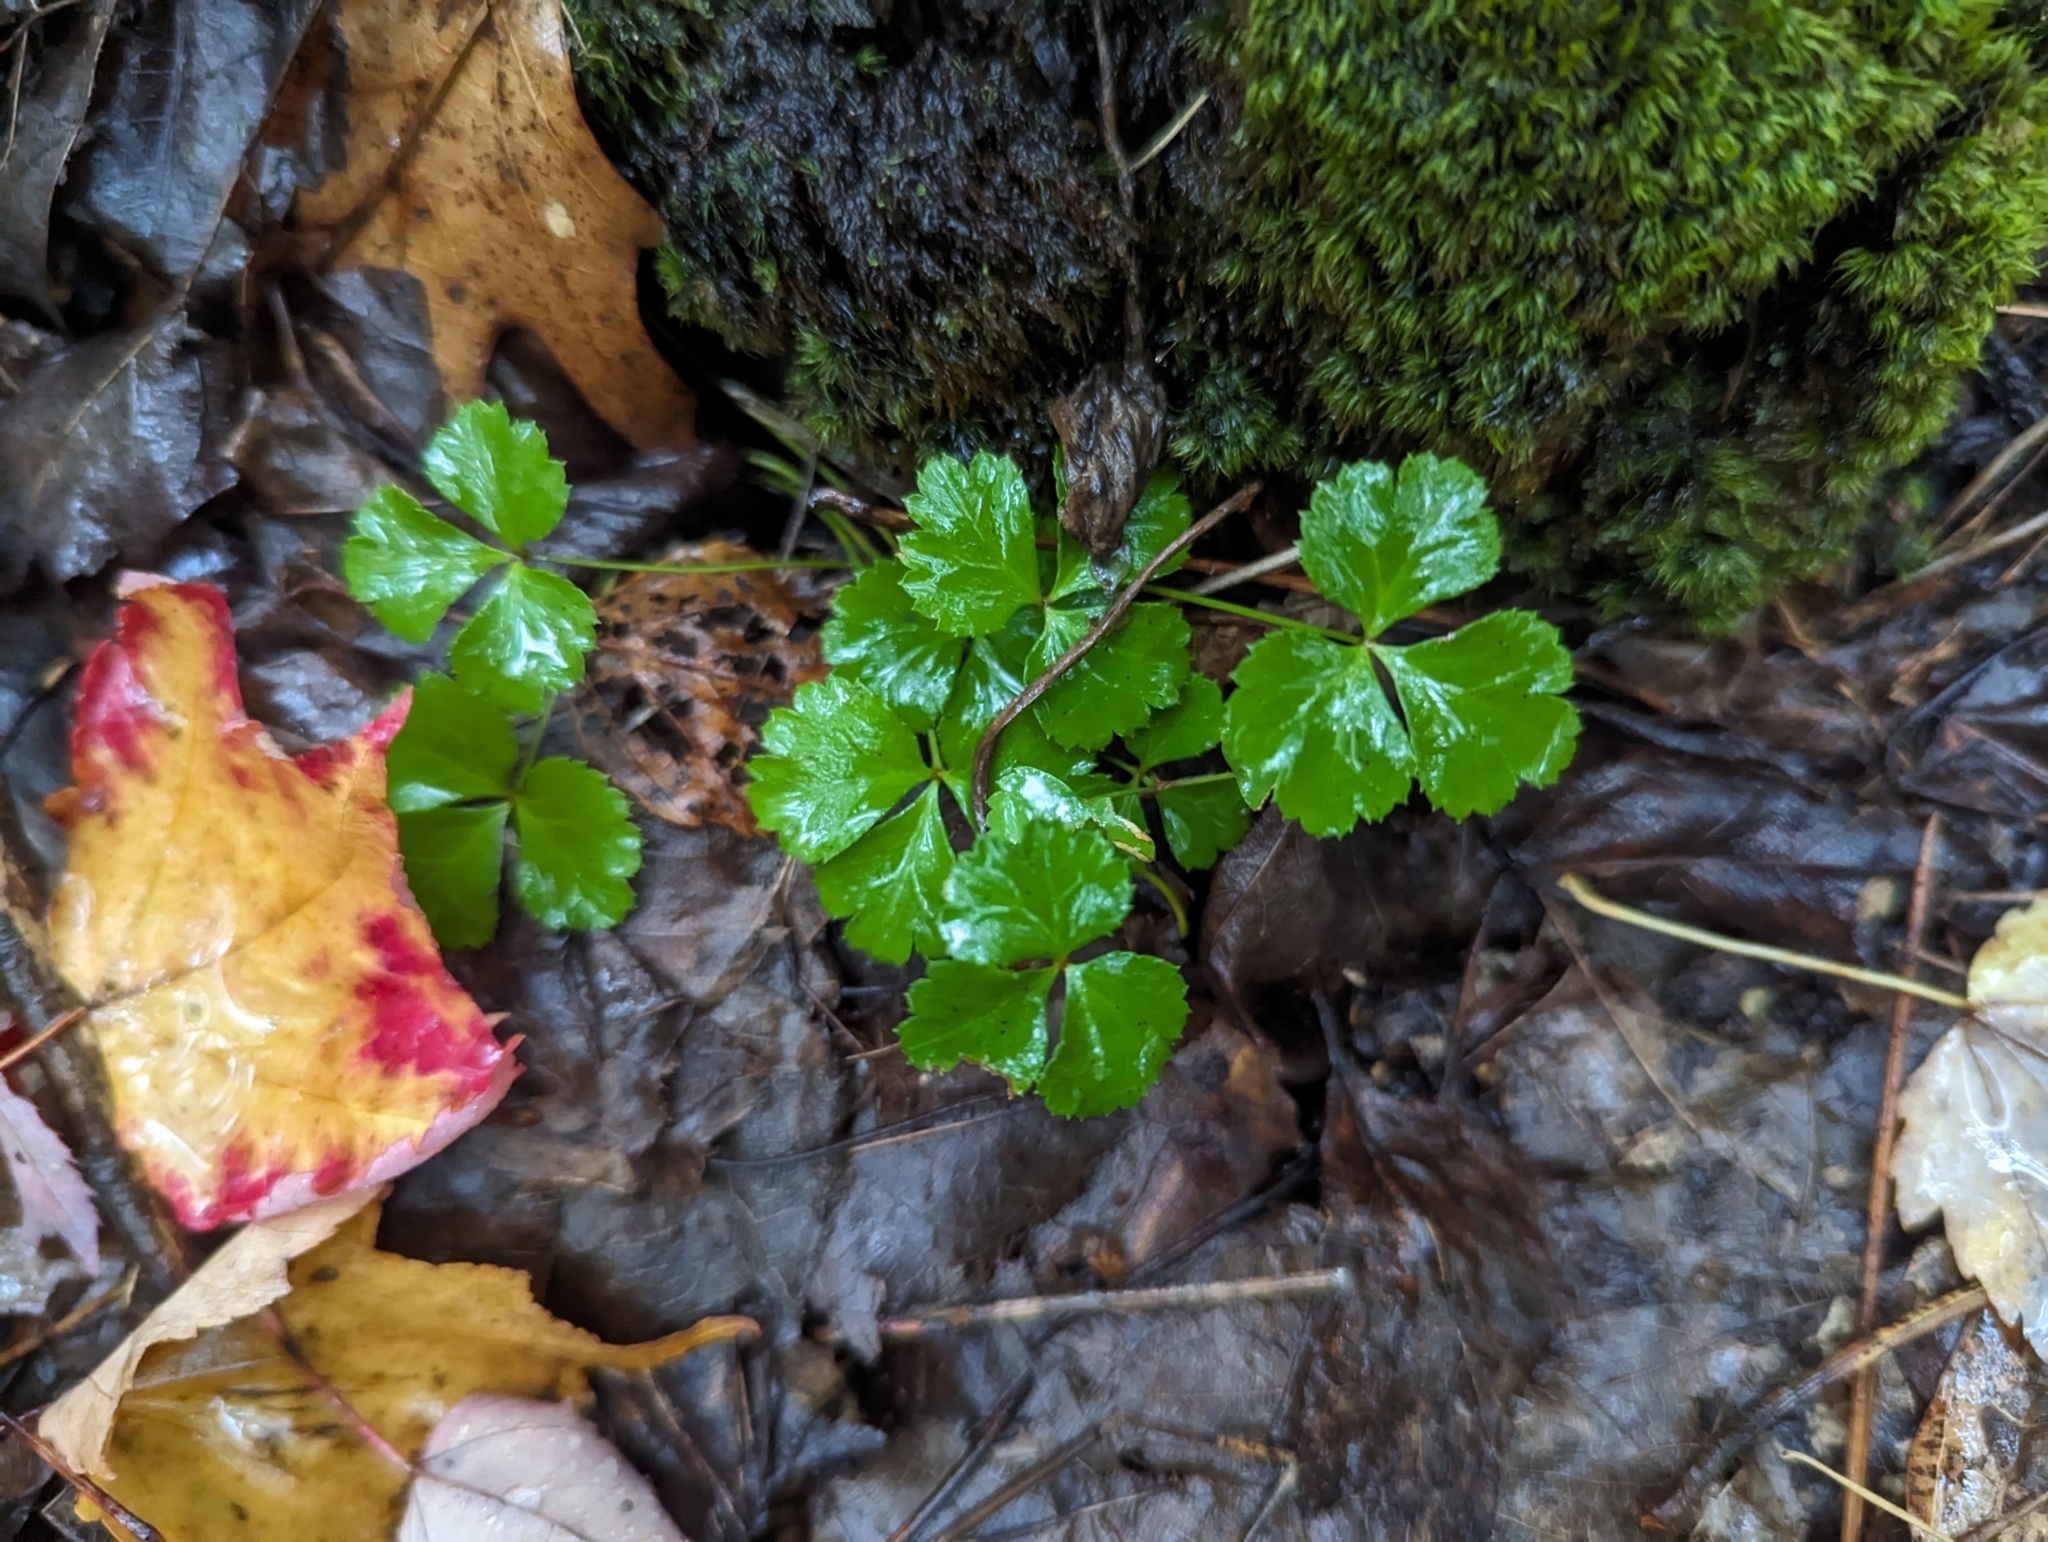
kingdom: Plantae
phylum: Tracheophyta
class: Magnoliopsida
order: Ranunculales
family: Ranunculaceae
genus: Coptis
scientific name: Coptis trifolia
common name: Canker-root
